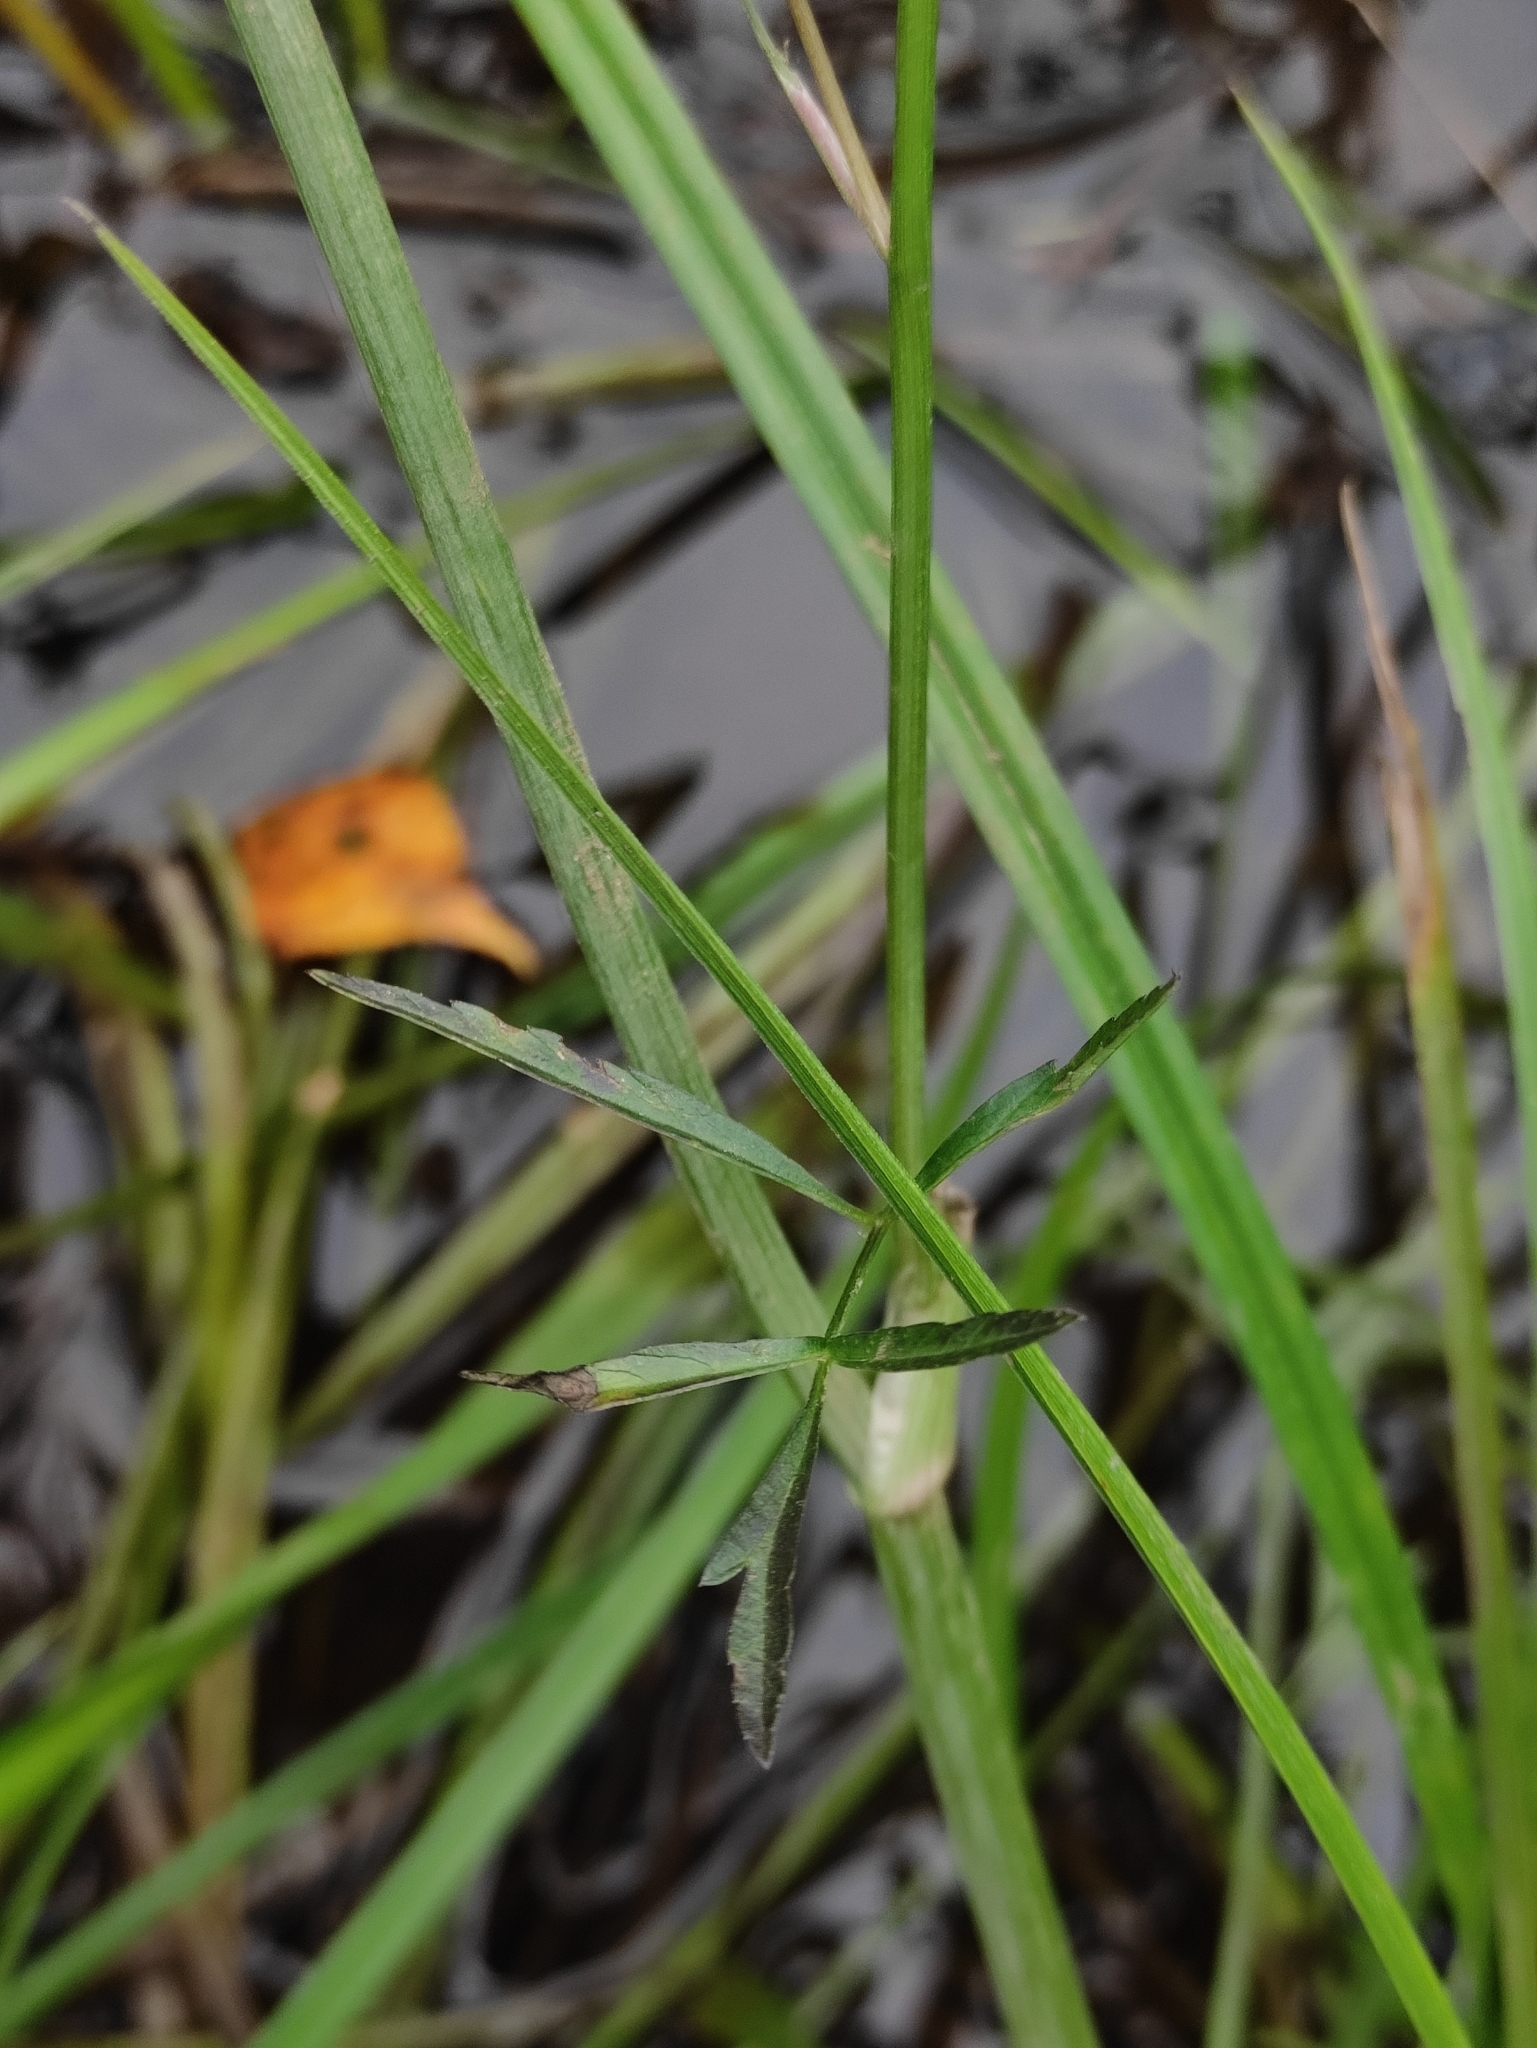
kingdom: Plantae
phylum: Tracheophyta
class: Magnoliopsida
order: Apiales
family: Apiaceae
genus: Sium
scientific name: Sium suave
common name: Hemlock water-parsnip
